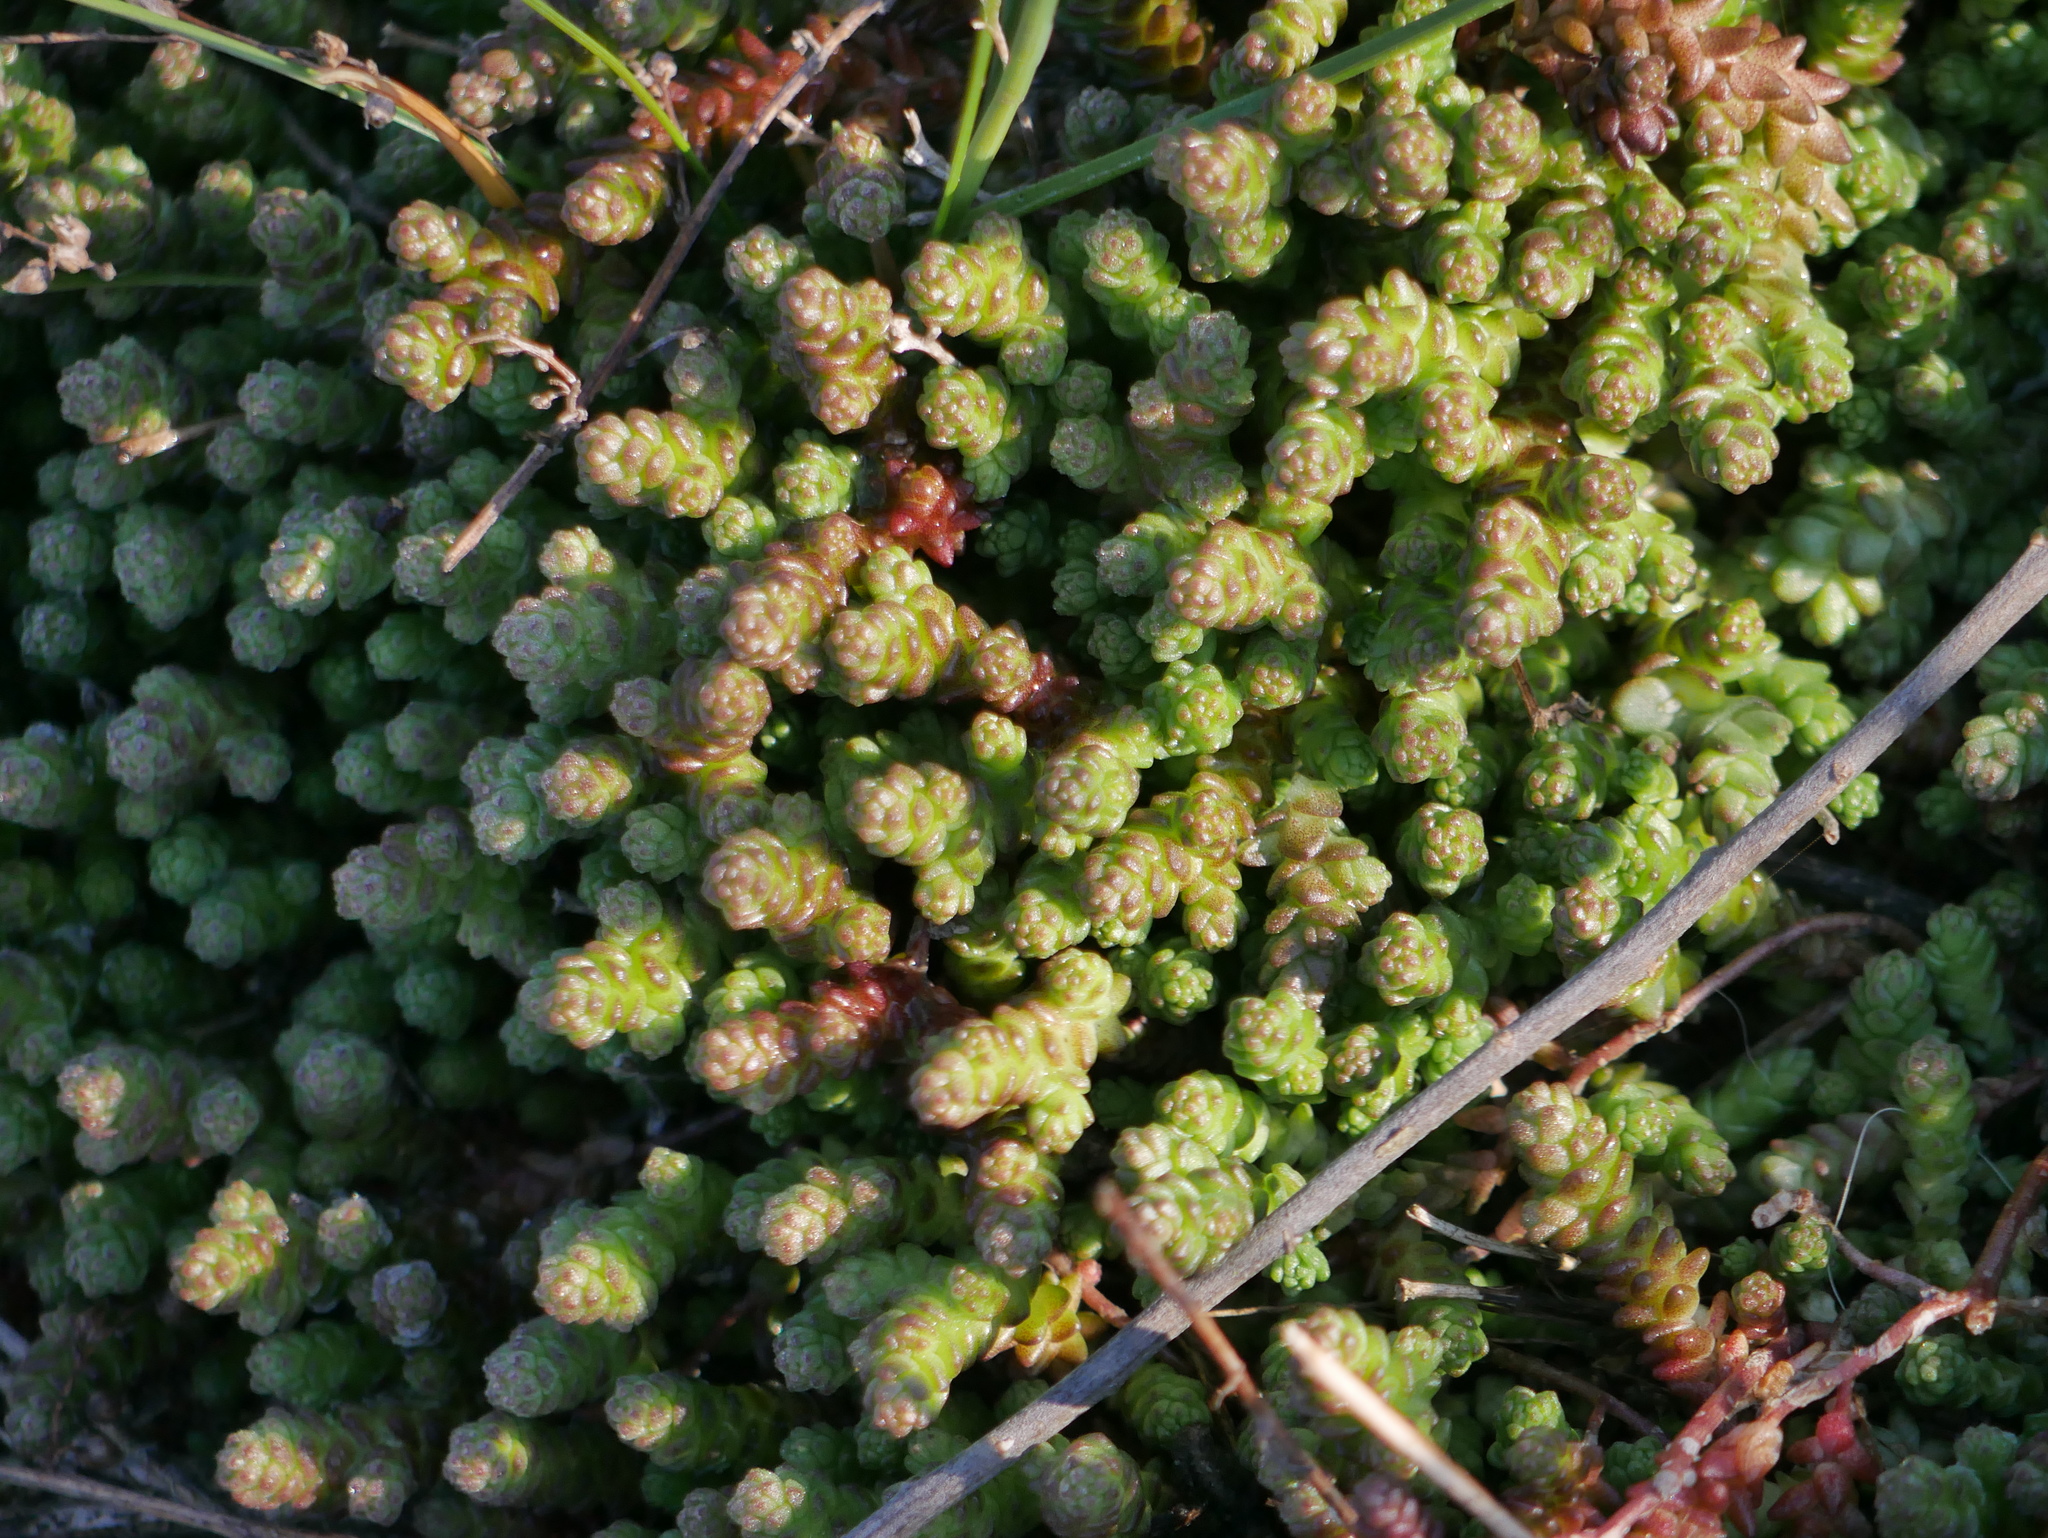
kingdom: Plantae
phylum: Tracheophyta
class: Magnoliopsida
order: Saxifragales
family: Crassulaceae
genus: Sedum
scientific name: Sedum acre
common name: Biting stonecrop
